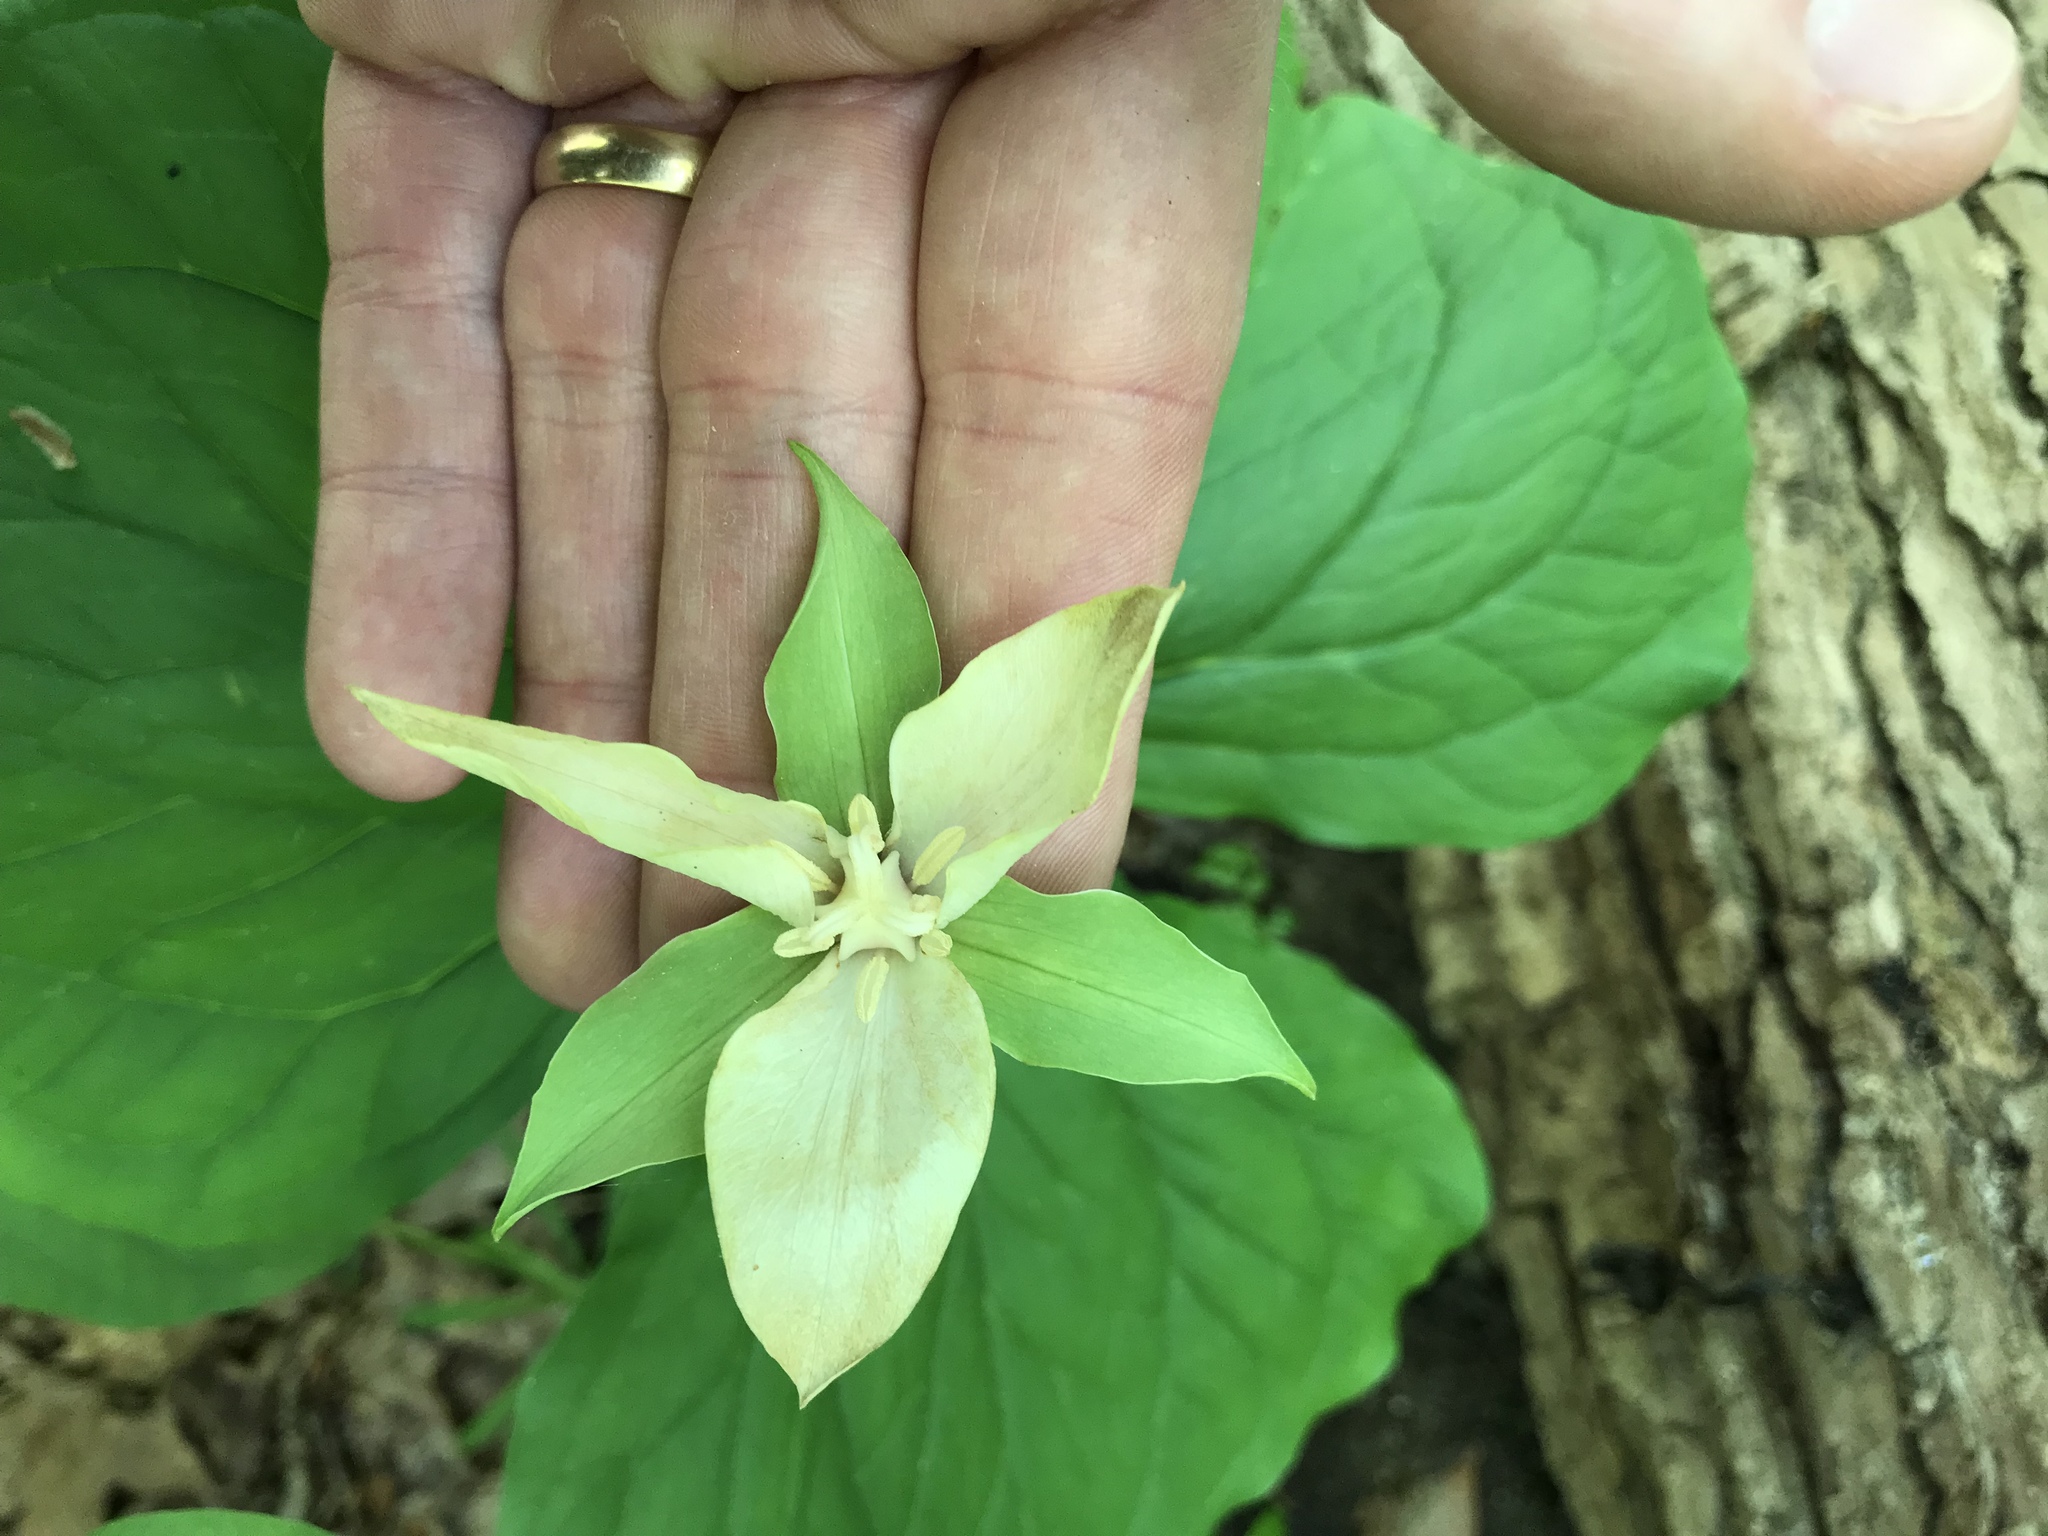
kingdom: Plantae
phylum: Tracheophyta
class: Liliopsida
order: Liliales
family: Melanthiaceae
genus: Trillium
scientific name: Trillium flexipes
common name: Drooping trillium
